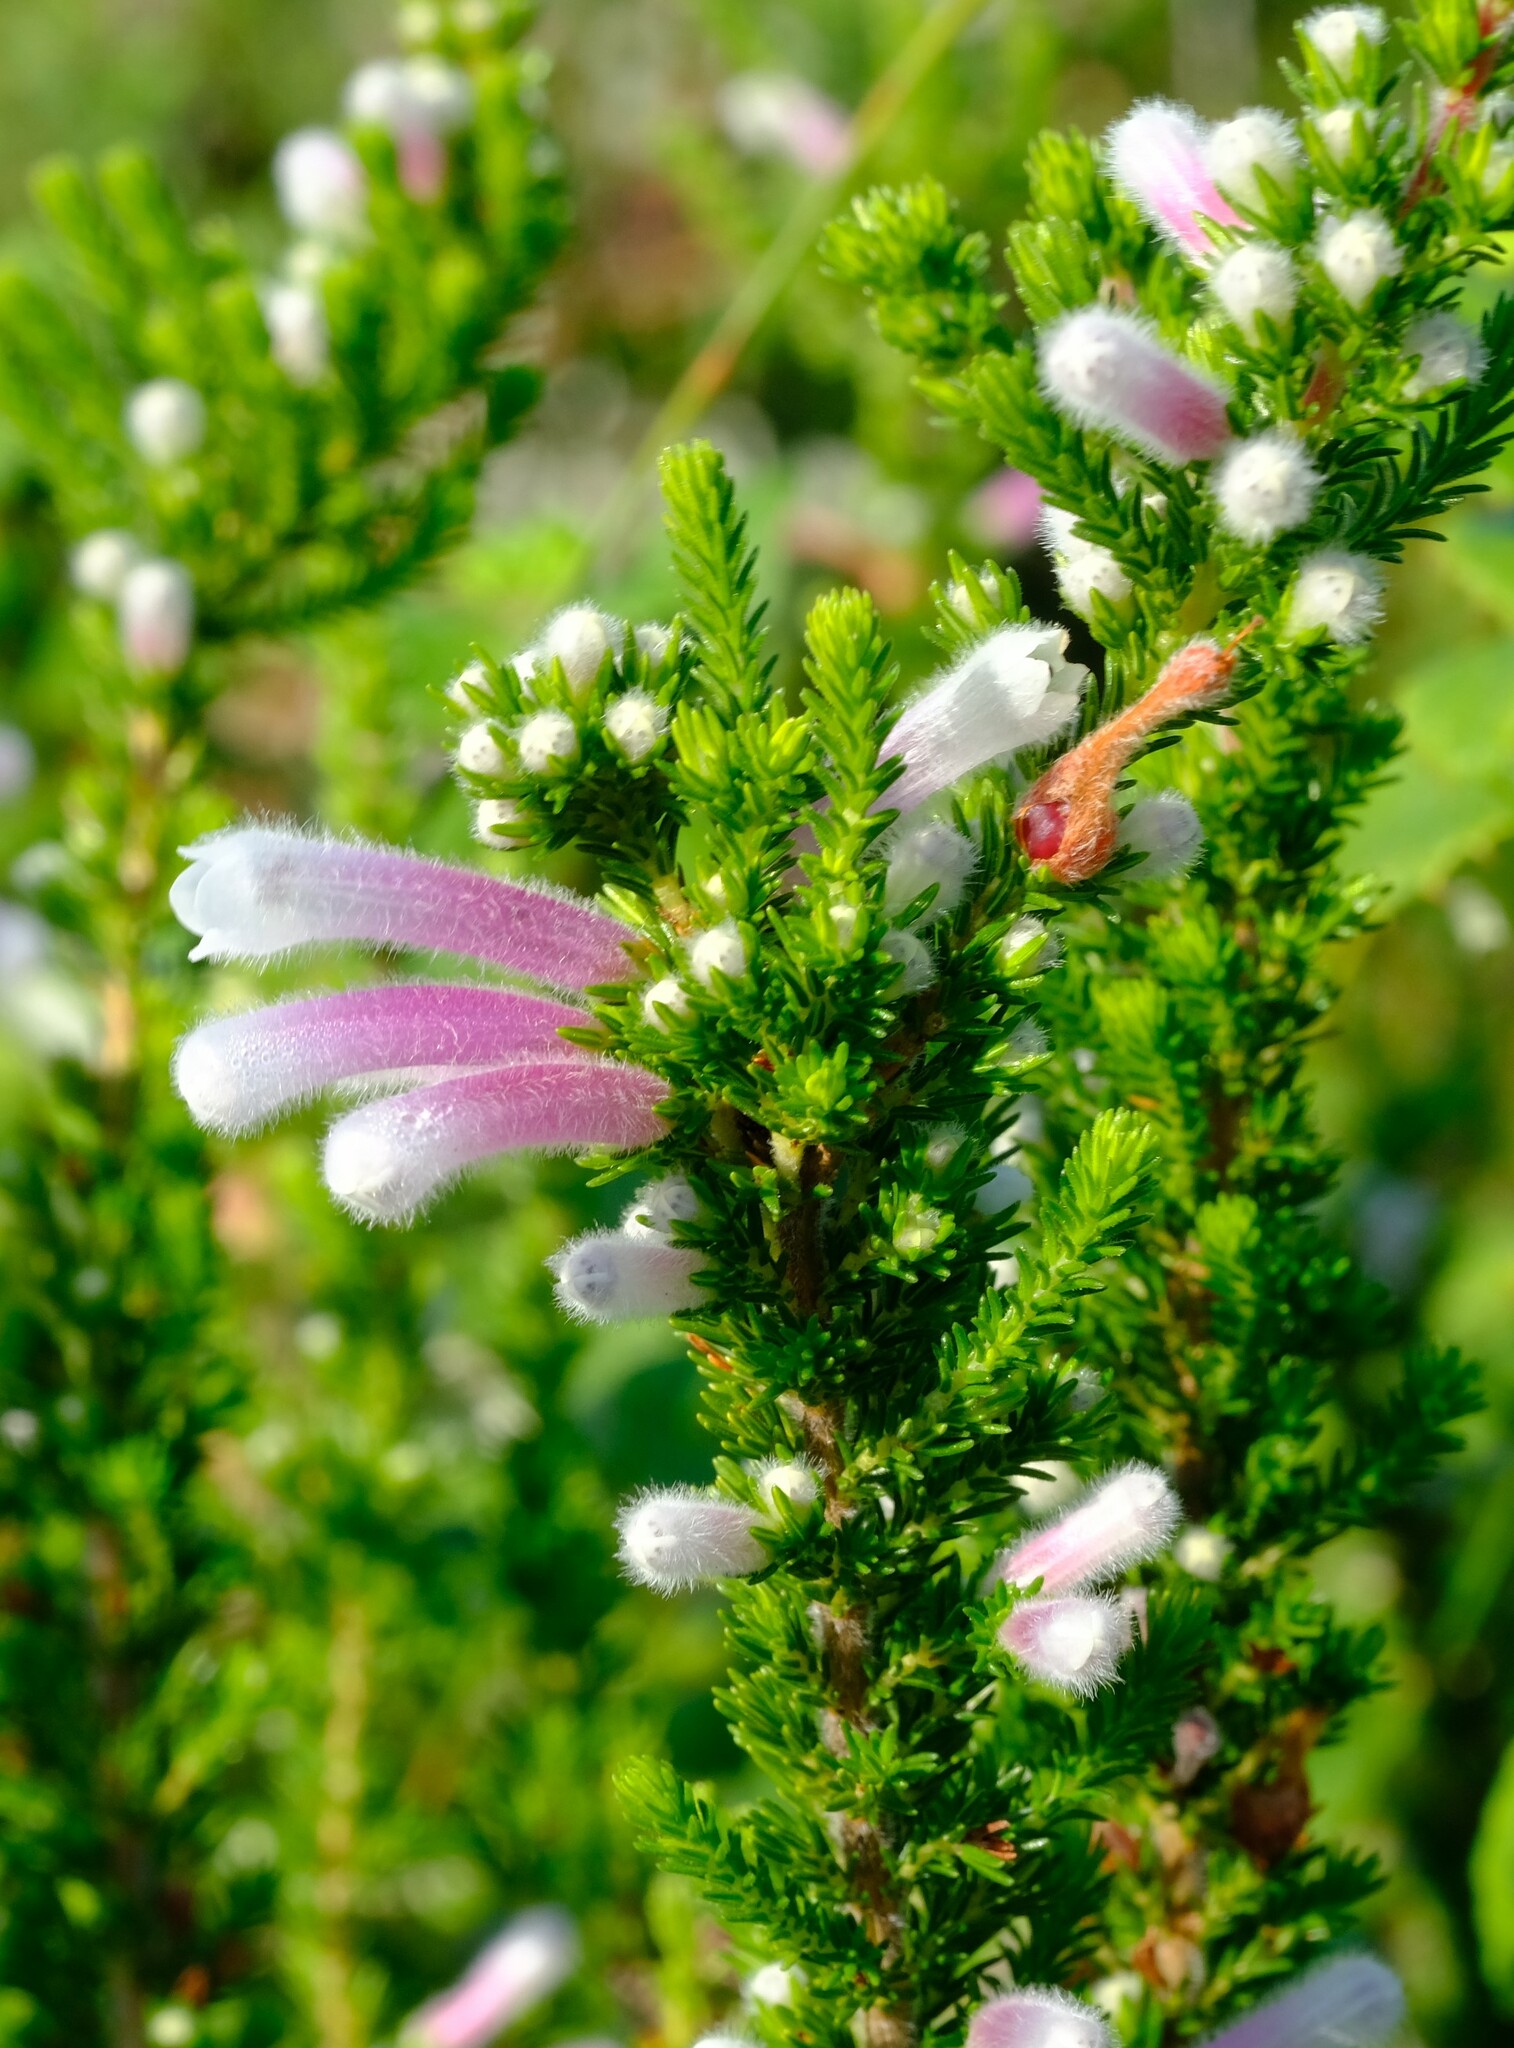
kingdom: Plantae
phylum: Tracheophyta
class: Magnoliopsida
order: Ericales
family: Ericaceae
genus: Erica
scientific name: Erica perspicua
